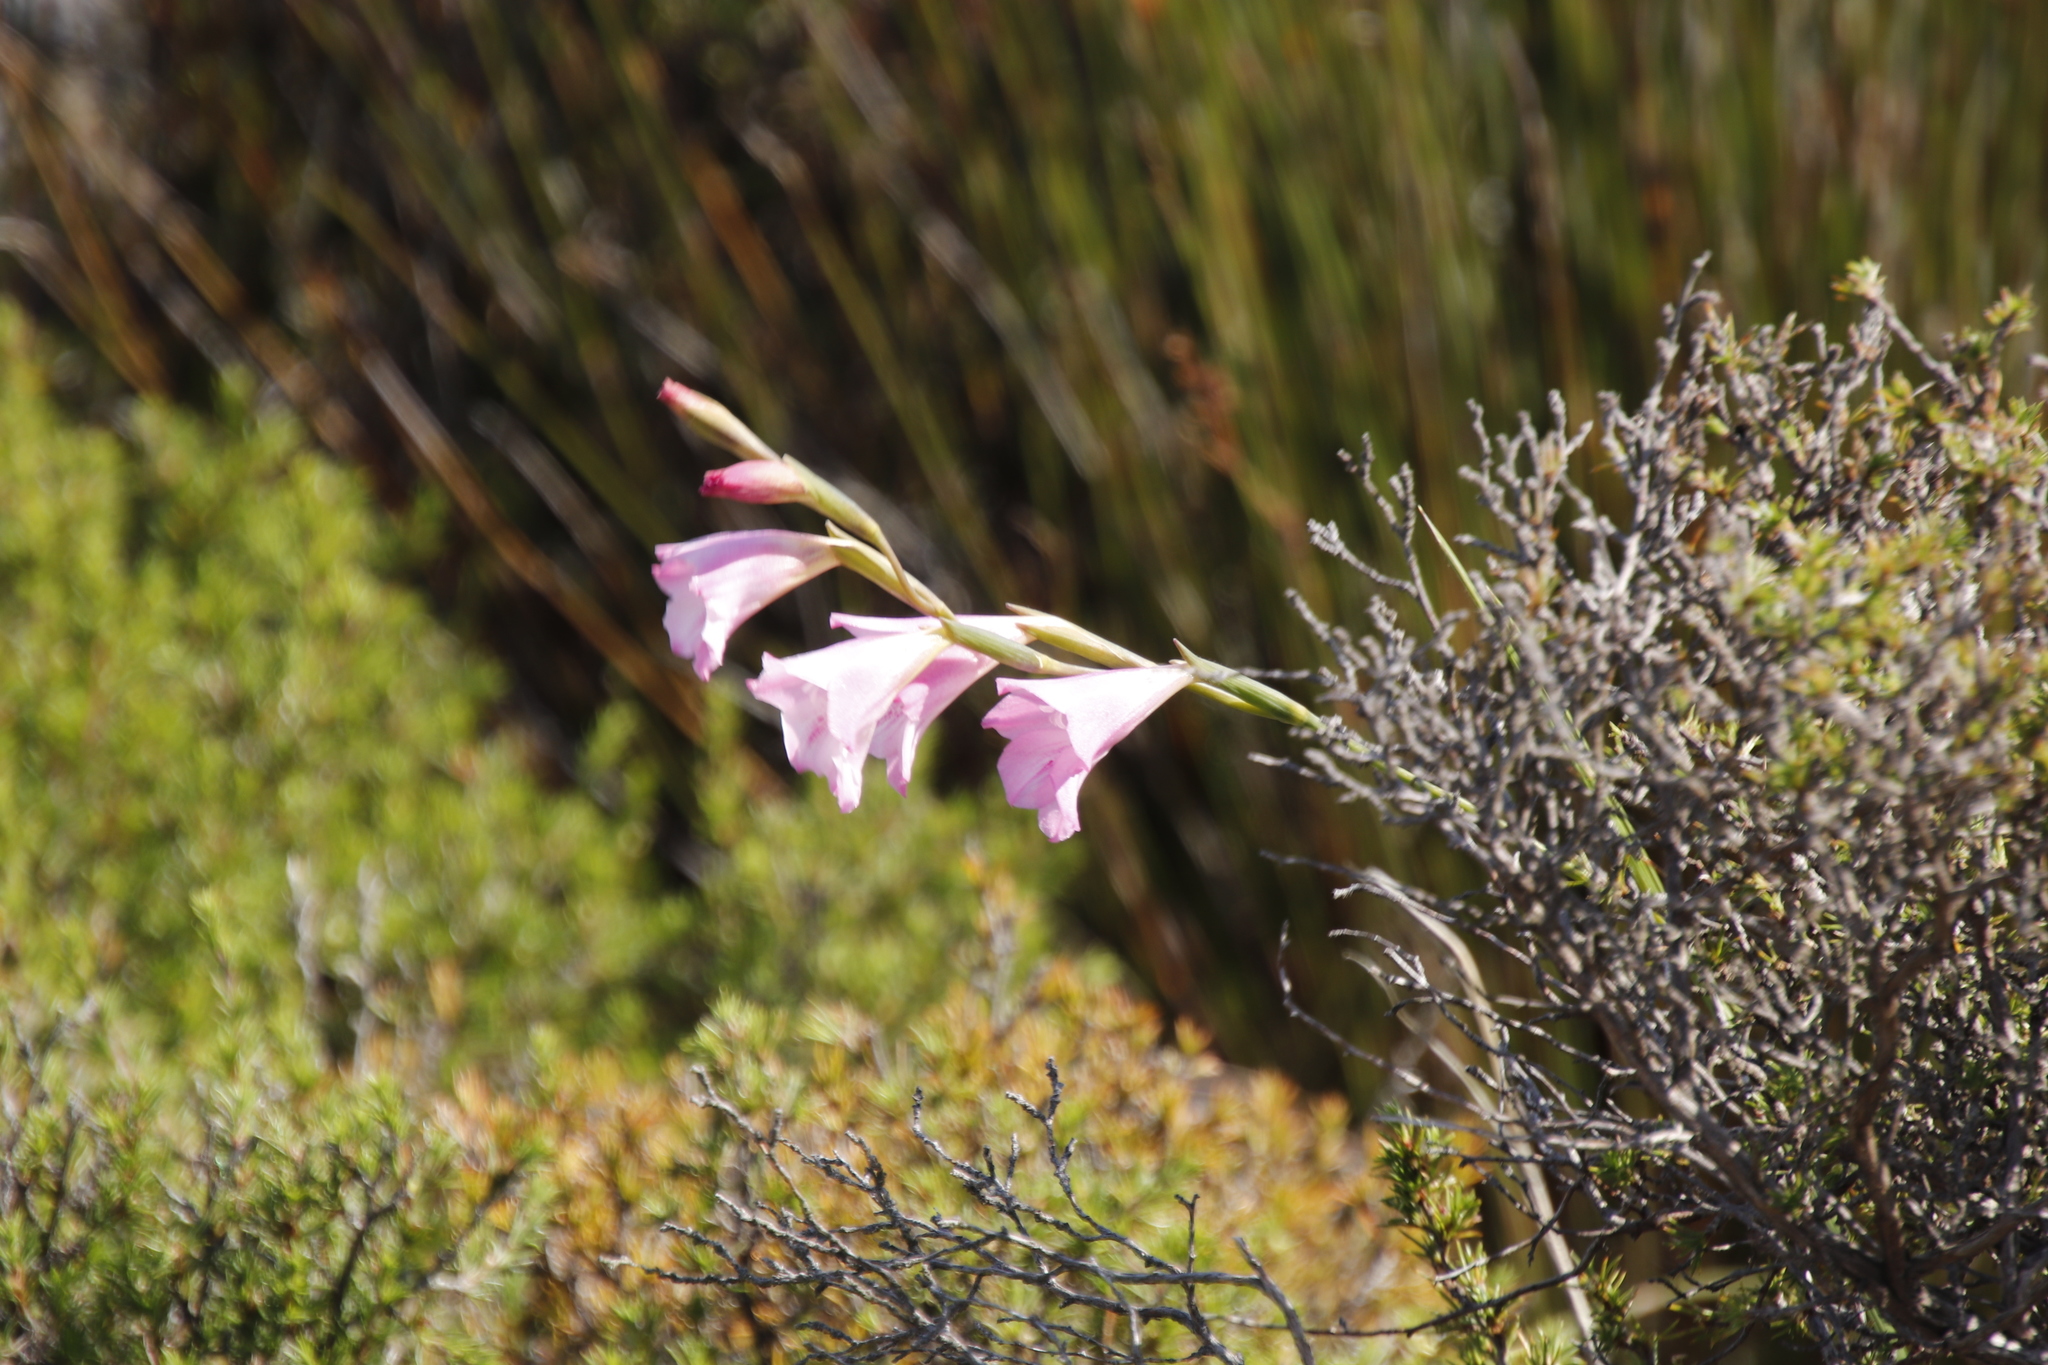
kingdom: Plantae
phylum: Tracheophyta
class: Liliopsida
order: Asparagales
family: Iridaceae
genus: Gladiolus
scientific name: Gladiolus hirsutus
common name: Small pink afrikaner
